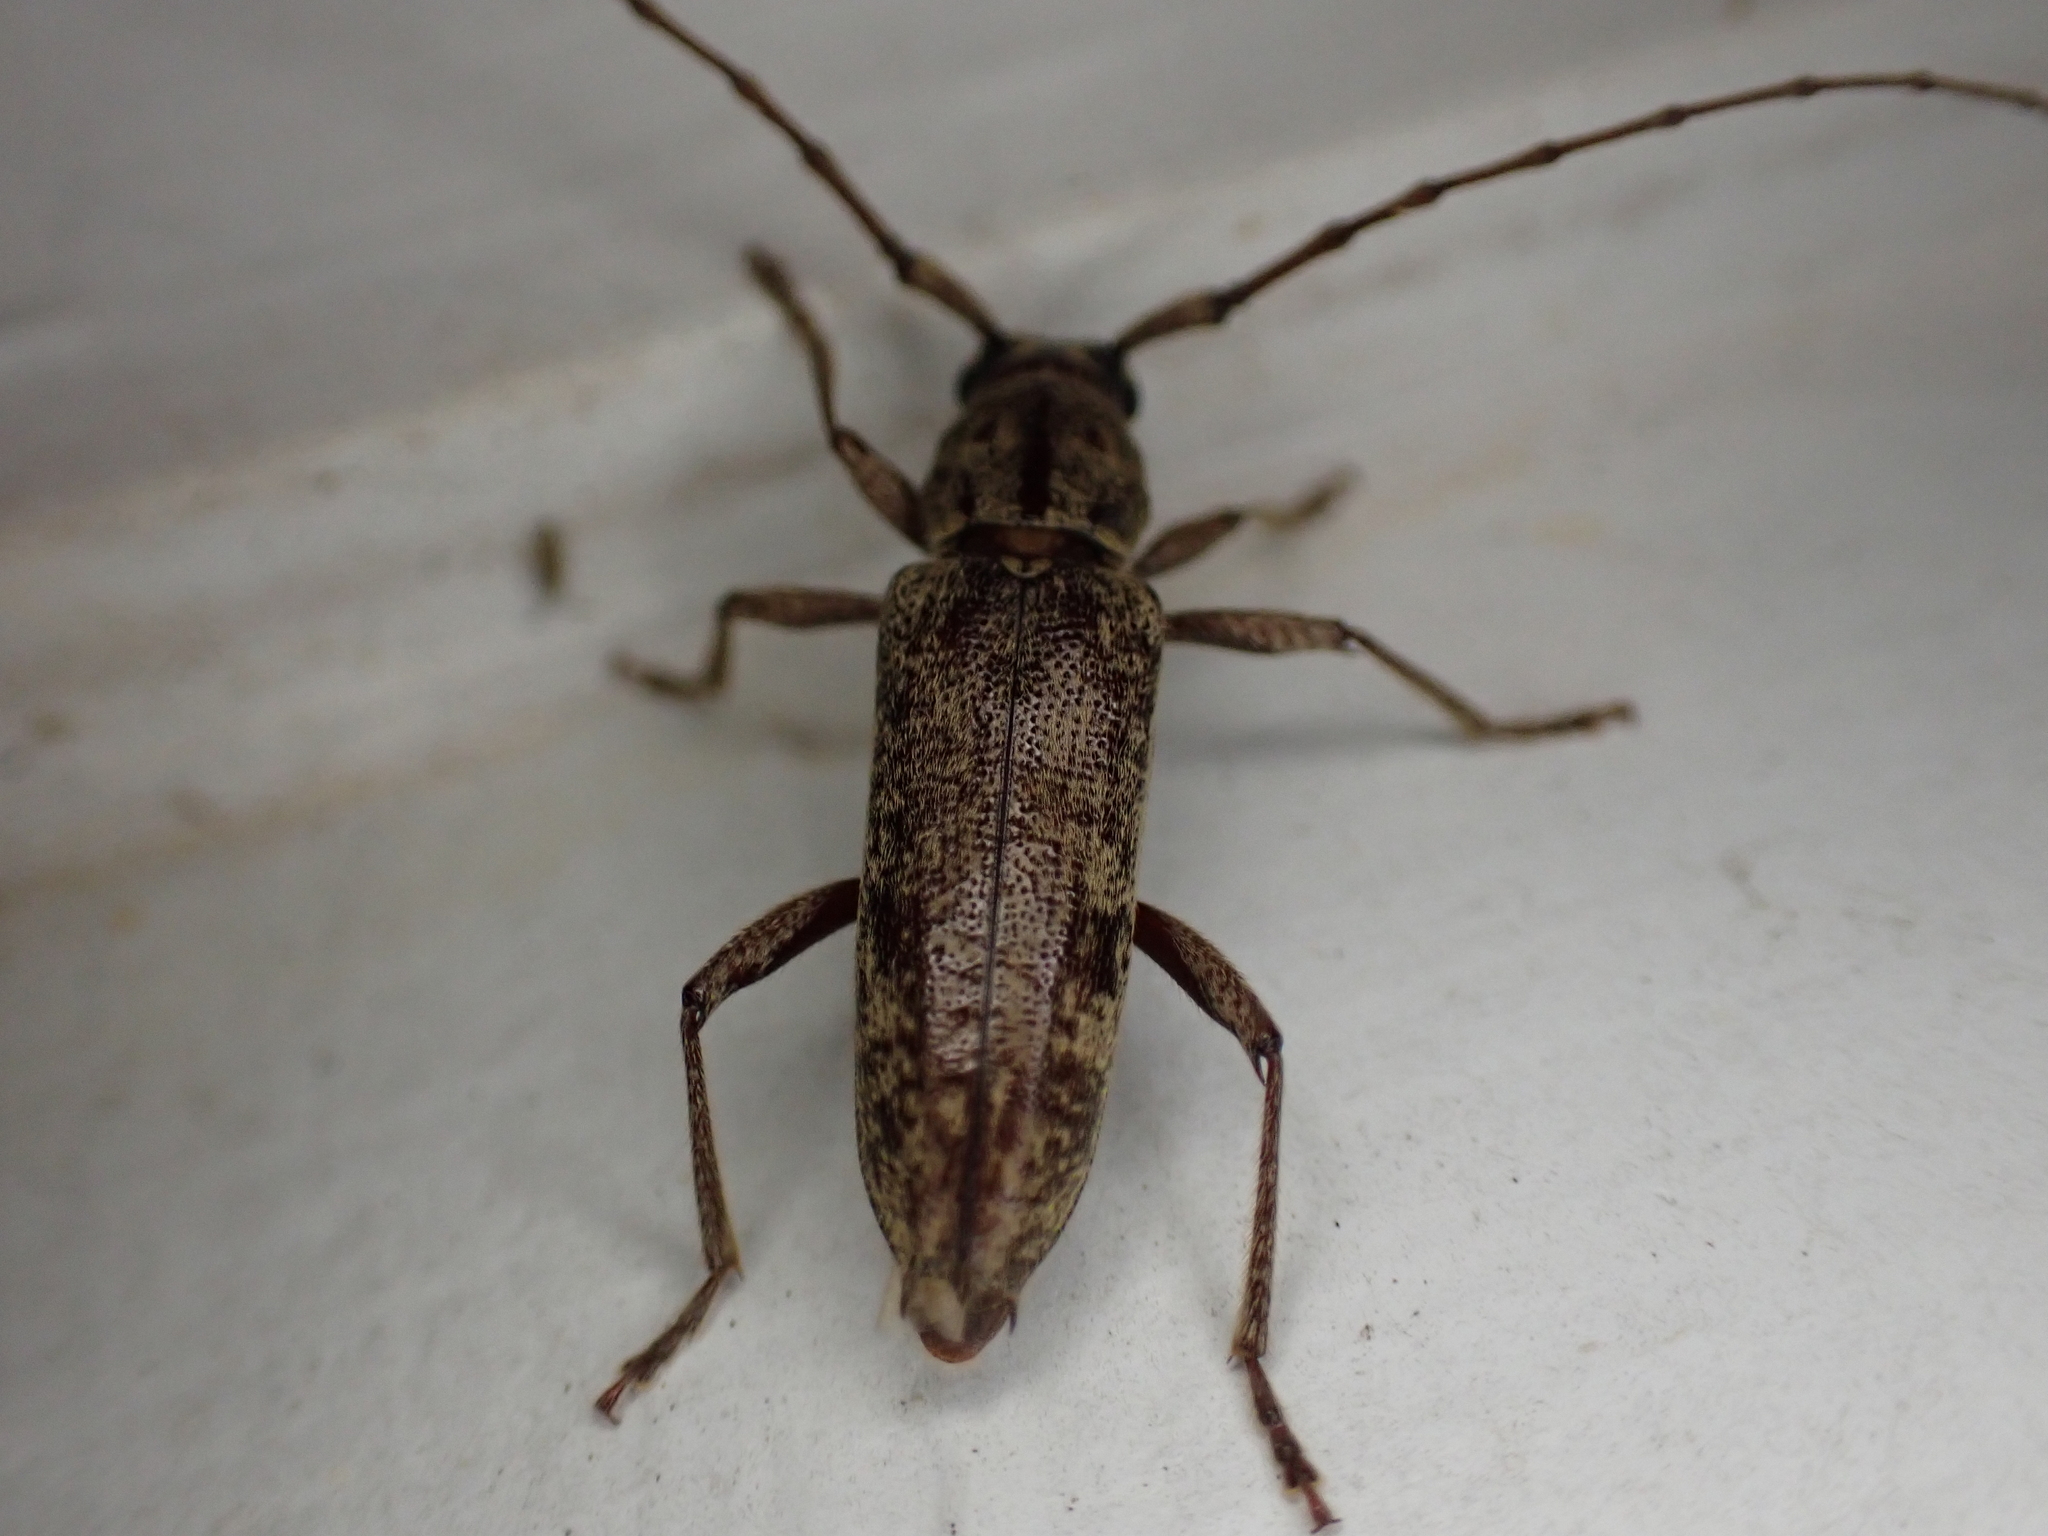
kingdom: Animalia
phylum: Arthropoda
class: Insecta
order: Coleoptera
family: Cerambycidae
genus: Elaphidion
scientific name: Elaphidion mucronatum
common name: Spined oak borer
